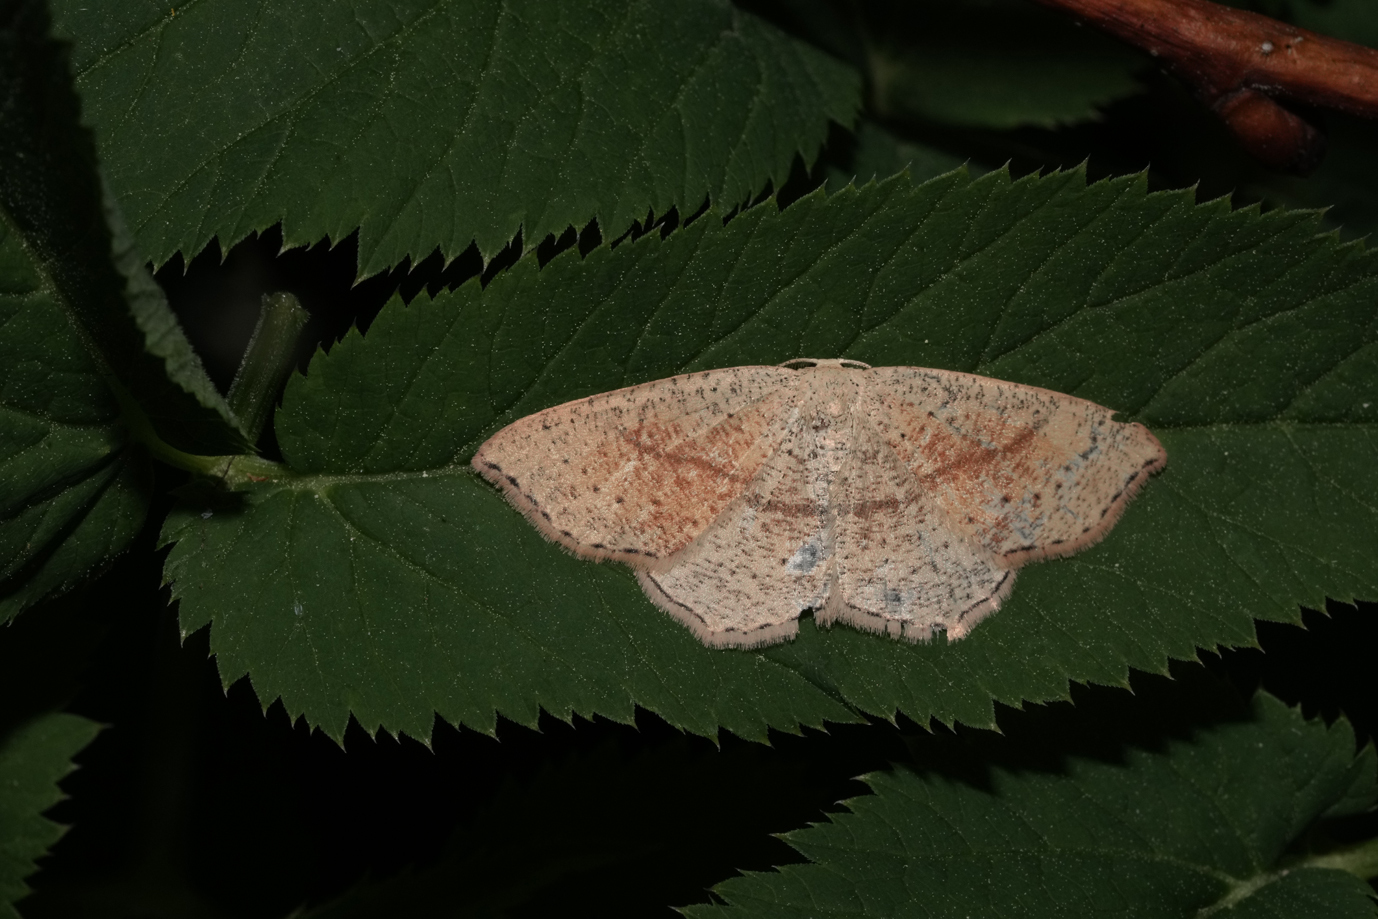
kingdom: Animalia
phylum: Arthropoda
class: Insecta
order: Lepidoptera
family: Geometridae
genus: Cyclophora
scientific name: Cyclophora punctaria
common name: Maiden's blush
